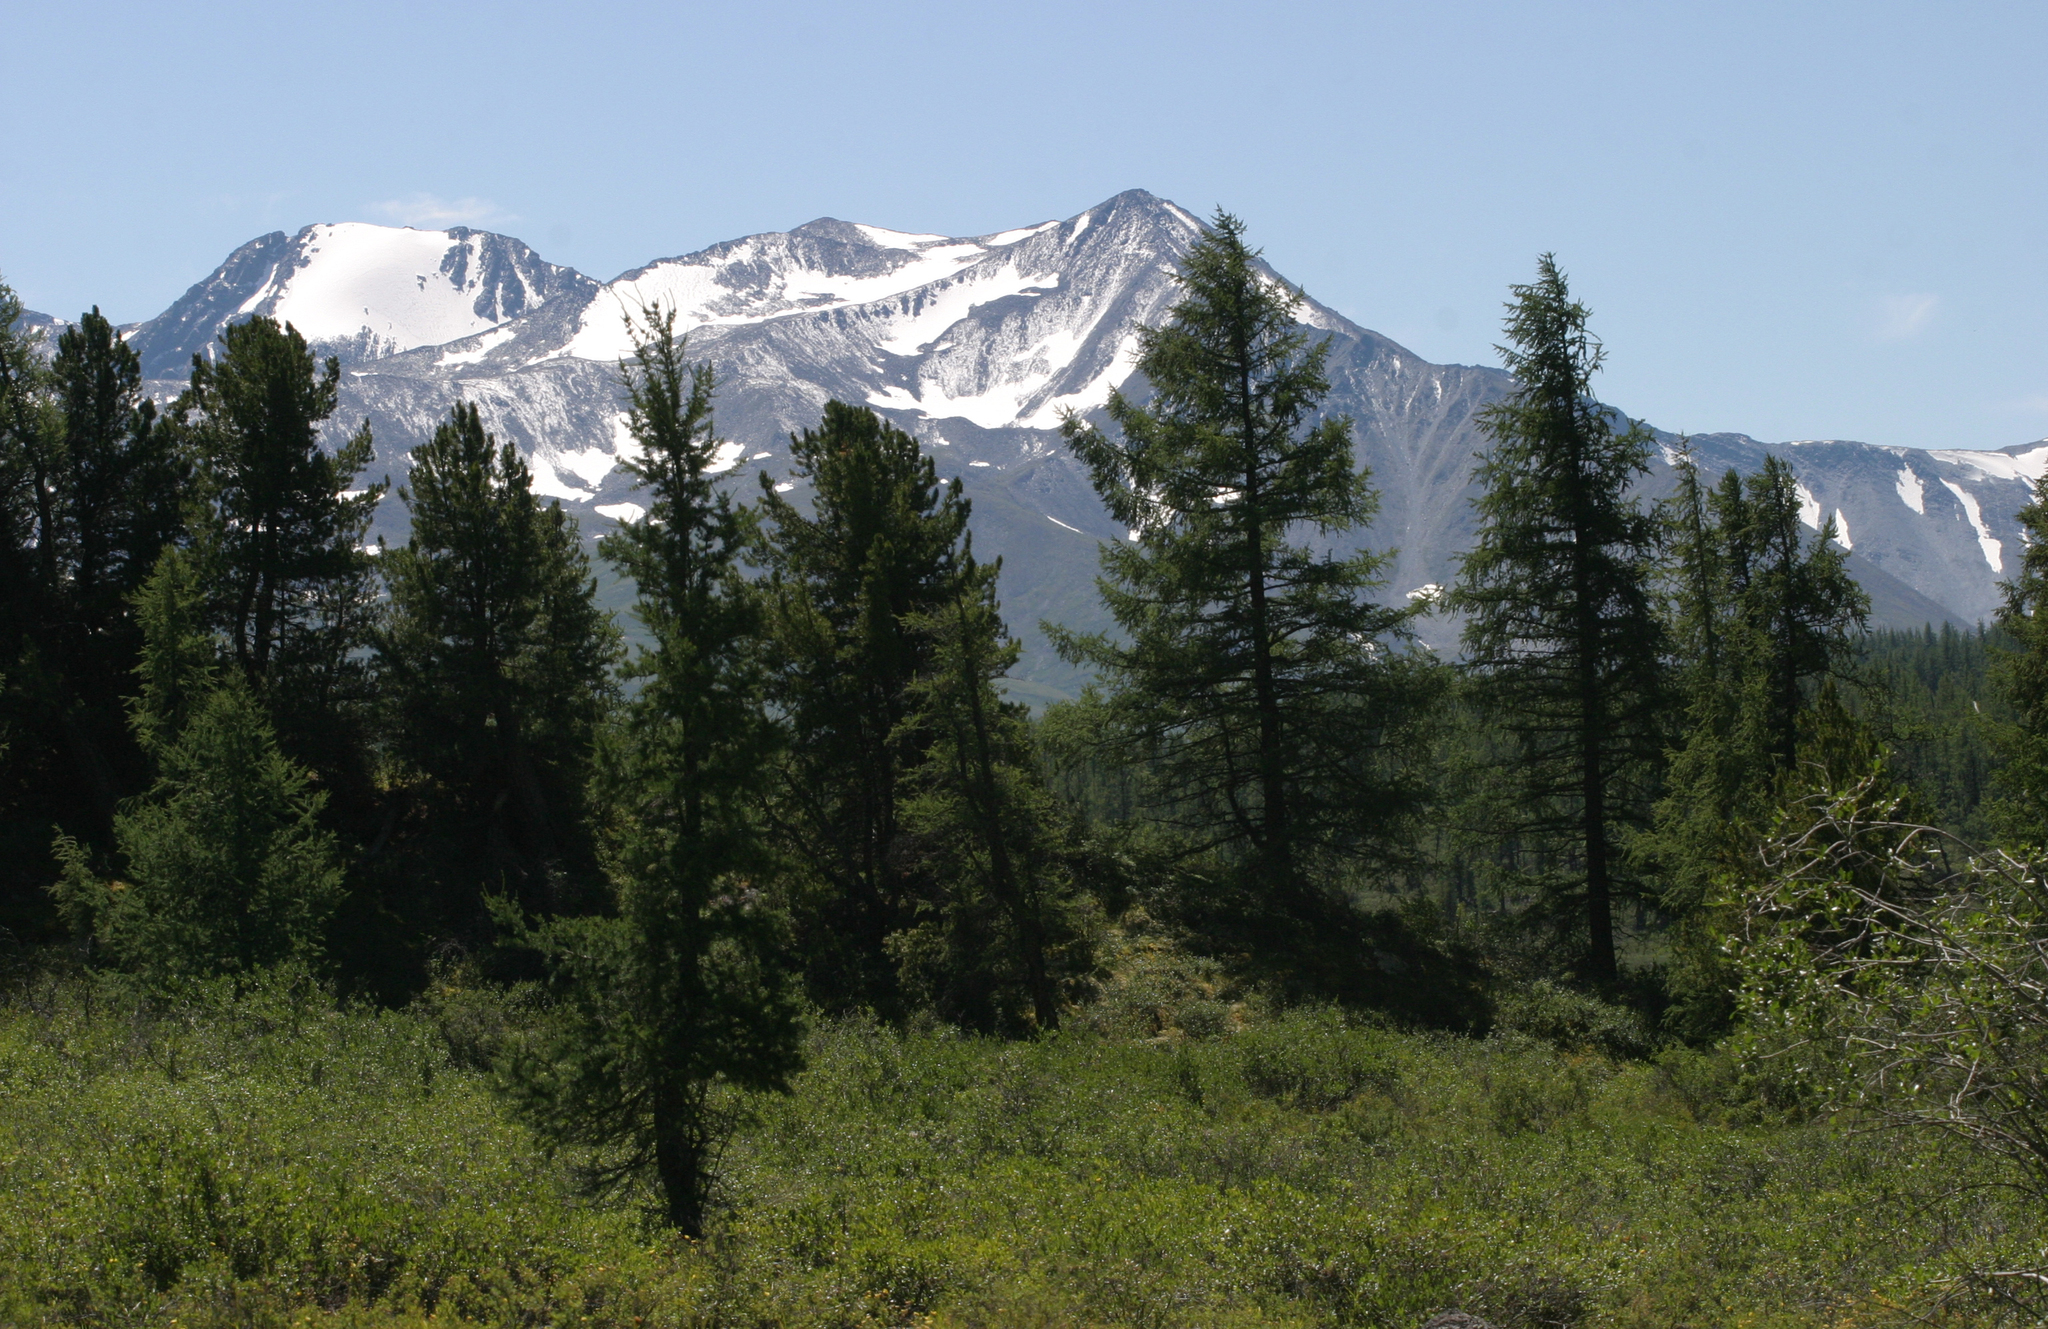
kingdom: Plantae
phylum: Tracheophyta
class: Pinopsida
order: Pinales
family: Pinaceae
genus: Larix
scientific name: Larix sibirica
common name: Siberian larch
